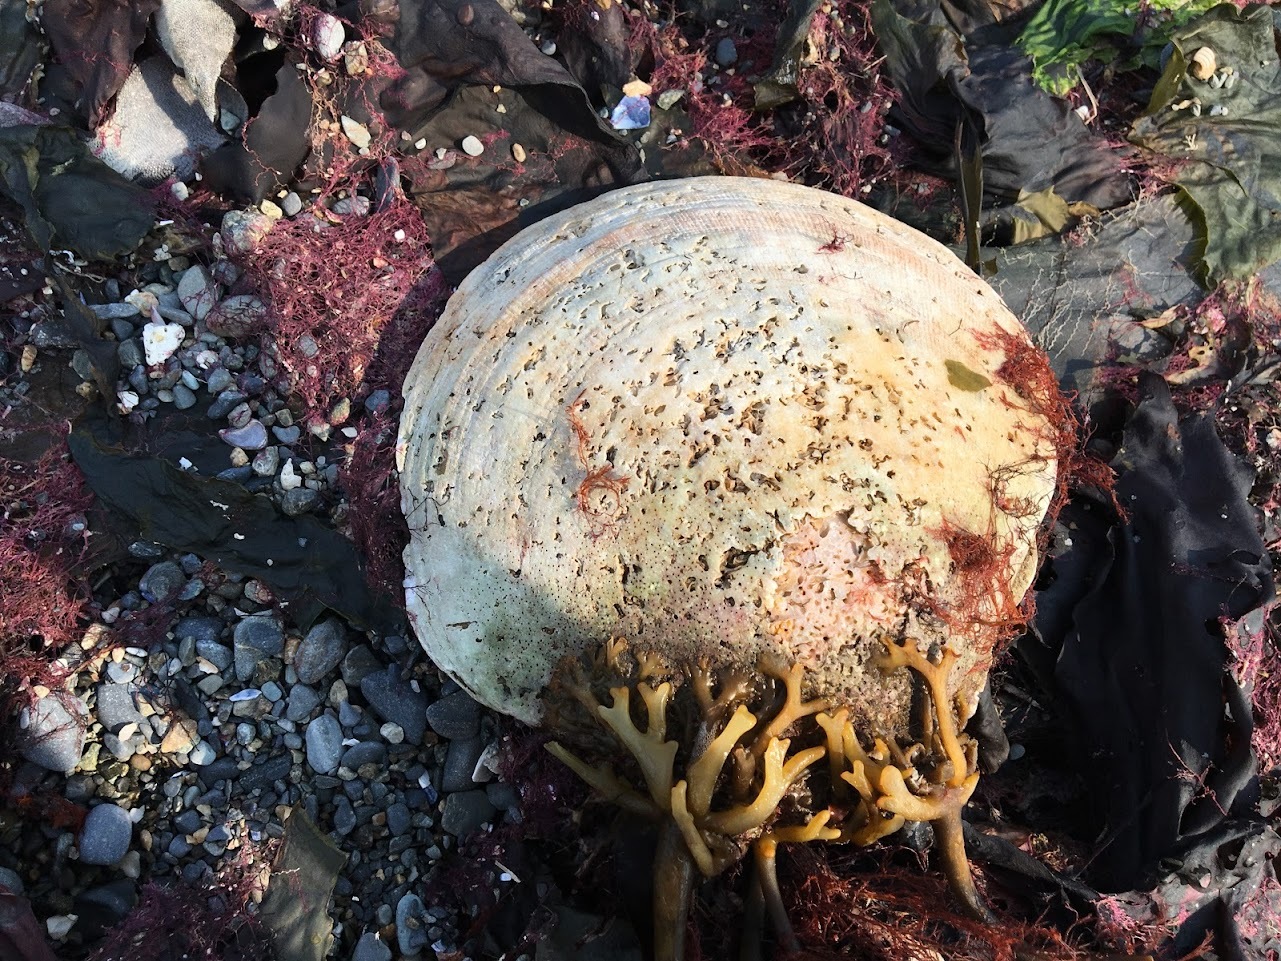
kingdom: Animalia
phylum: Mollusca
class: Bivalvia
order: Pectinida
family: Pectinidae
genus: Placopecten
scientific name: Placopecten magellanicus
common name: American sea scallop
